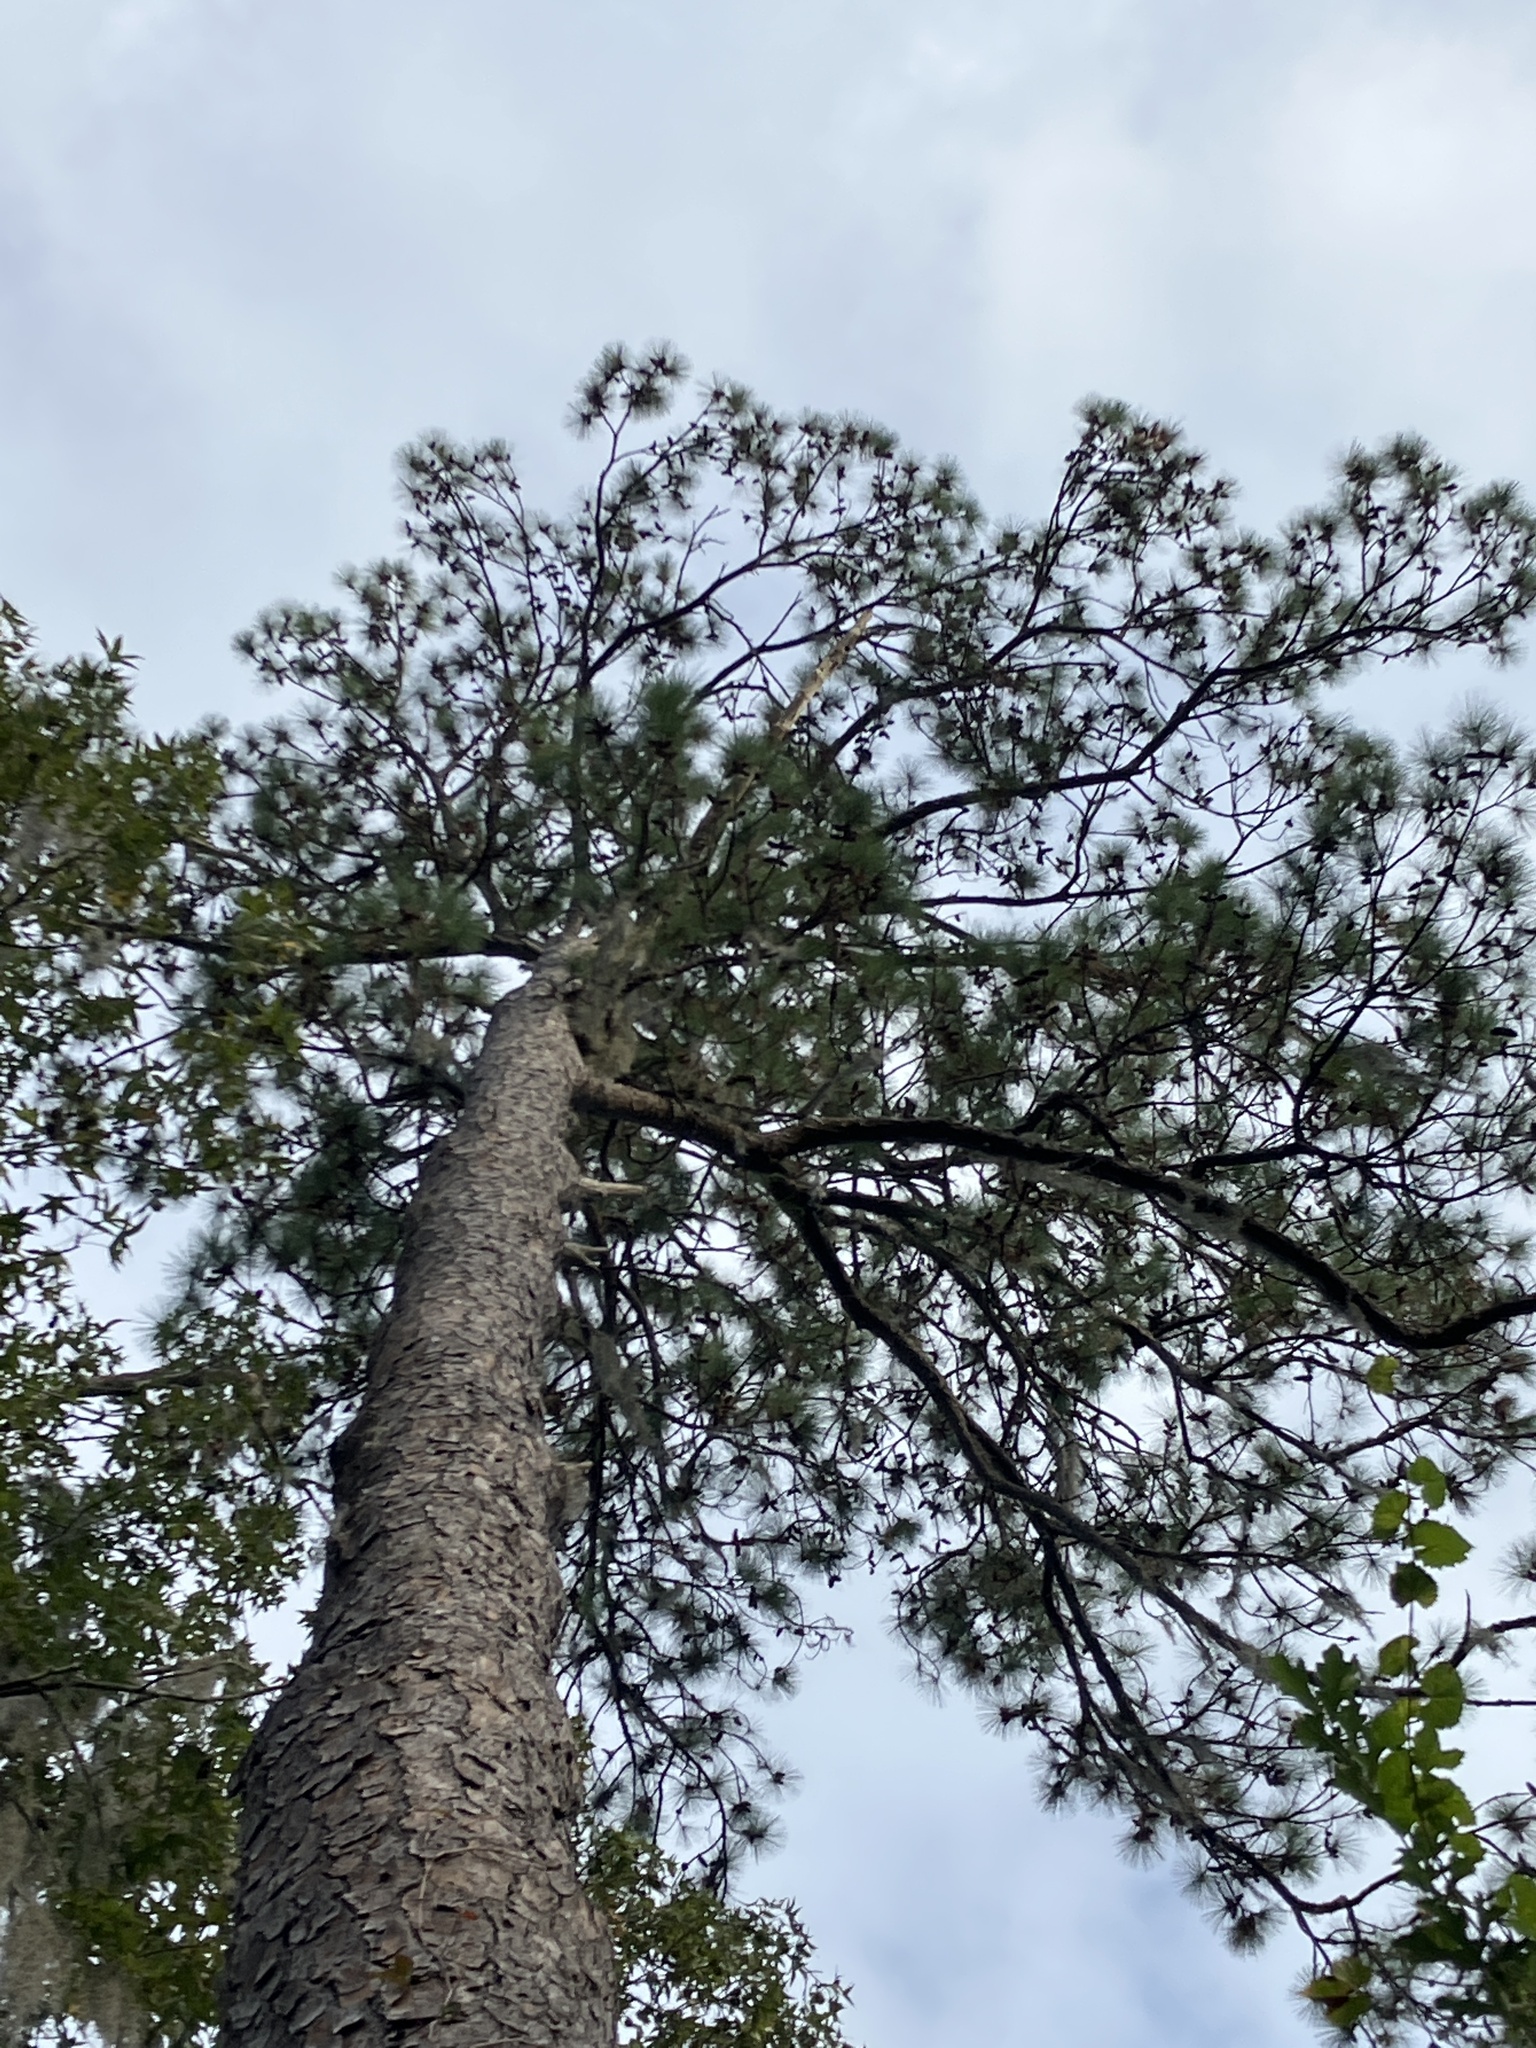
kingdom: Plantae
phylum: Tracheophyta
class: Pinopsida
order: Pinales
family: Pinaceae
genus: Pinus
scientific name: Pinus taeda
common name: Loblolly pine
